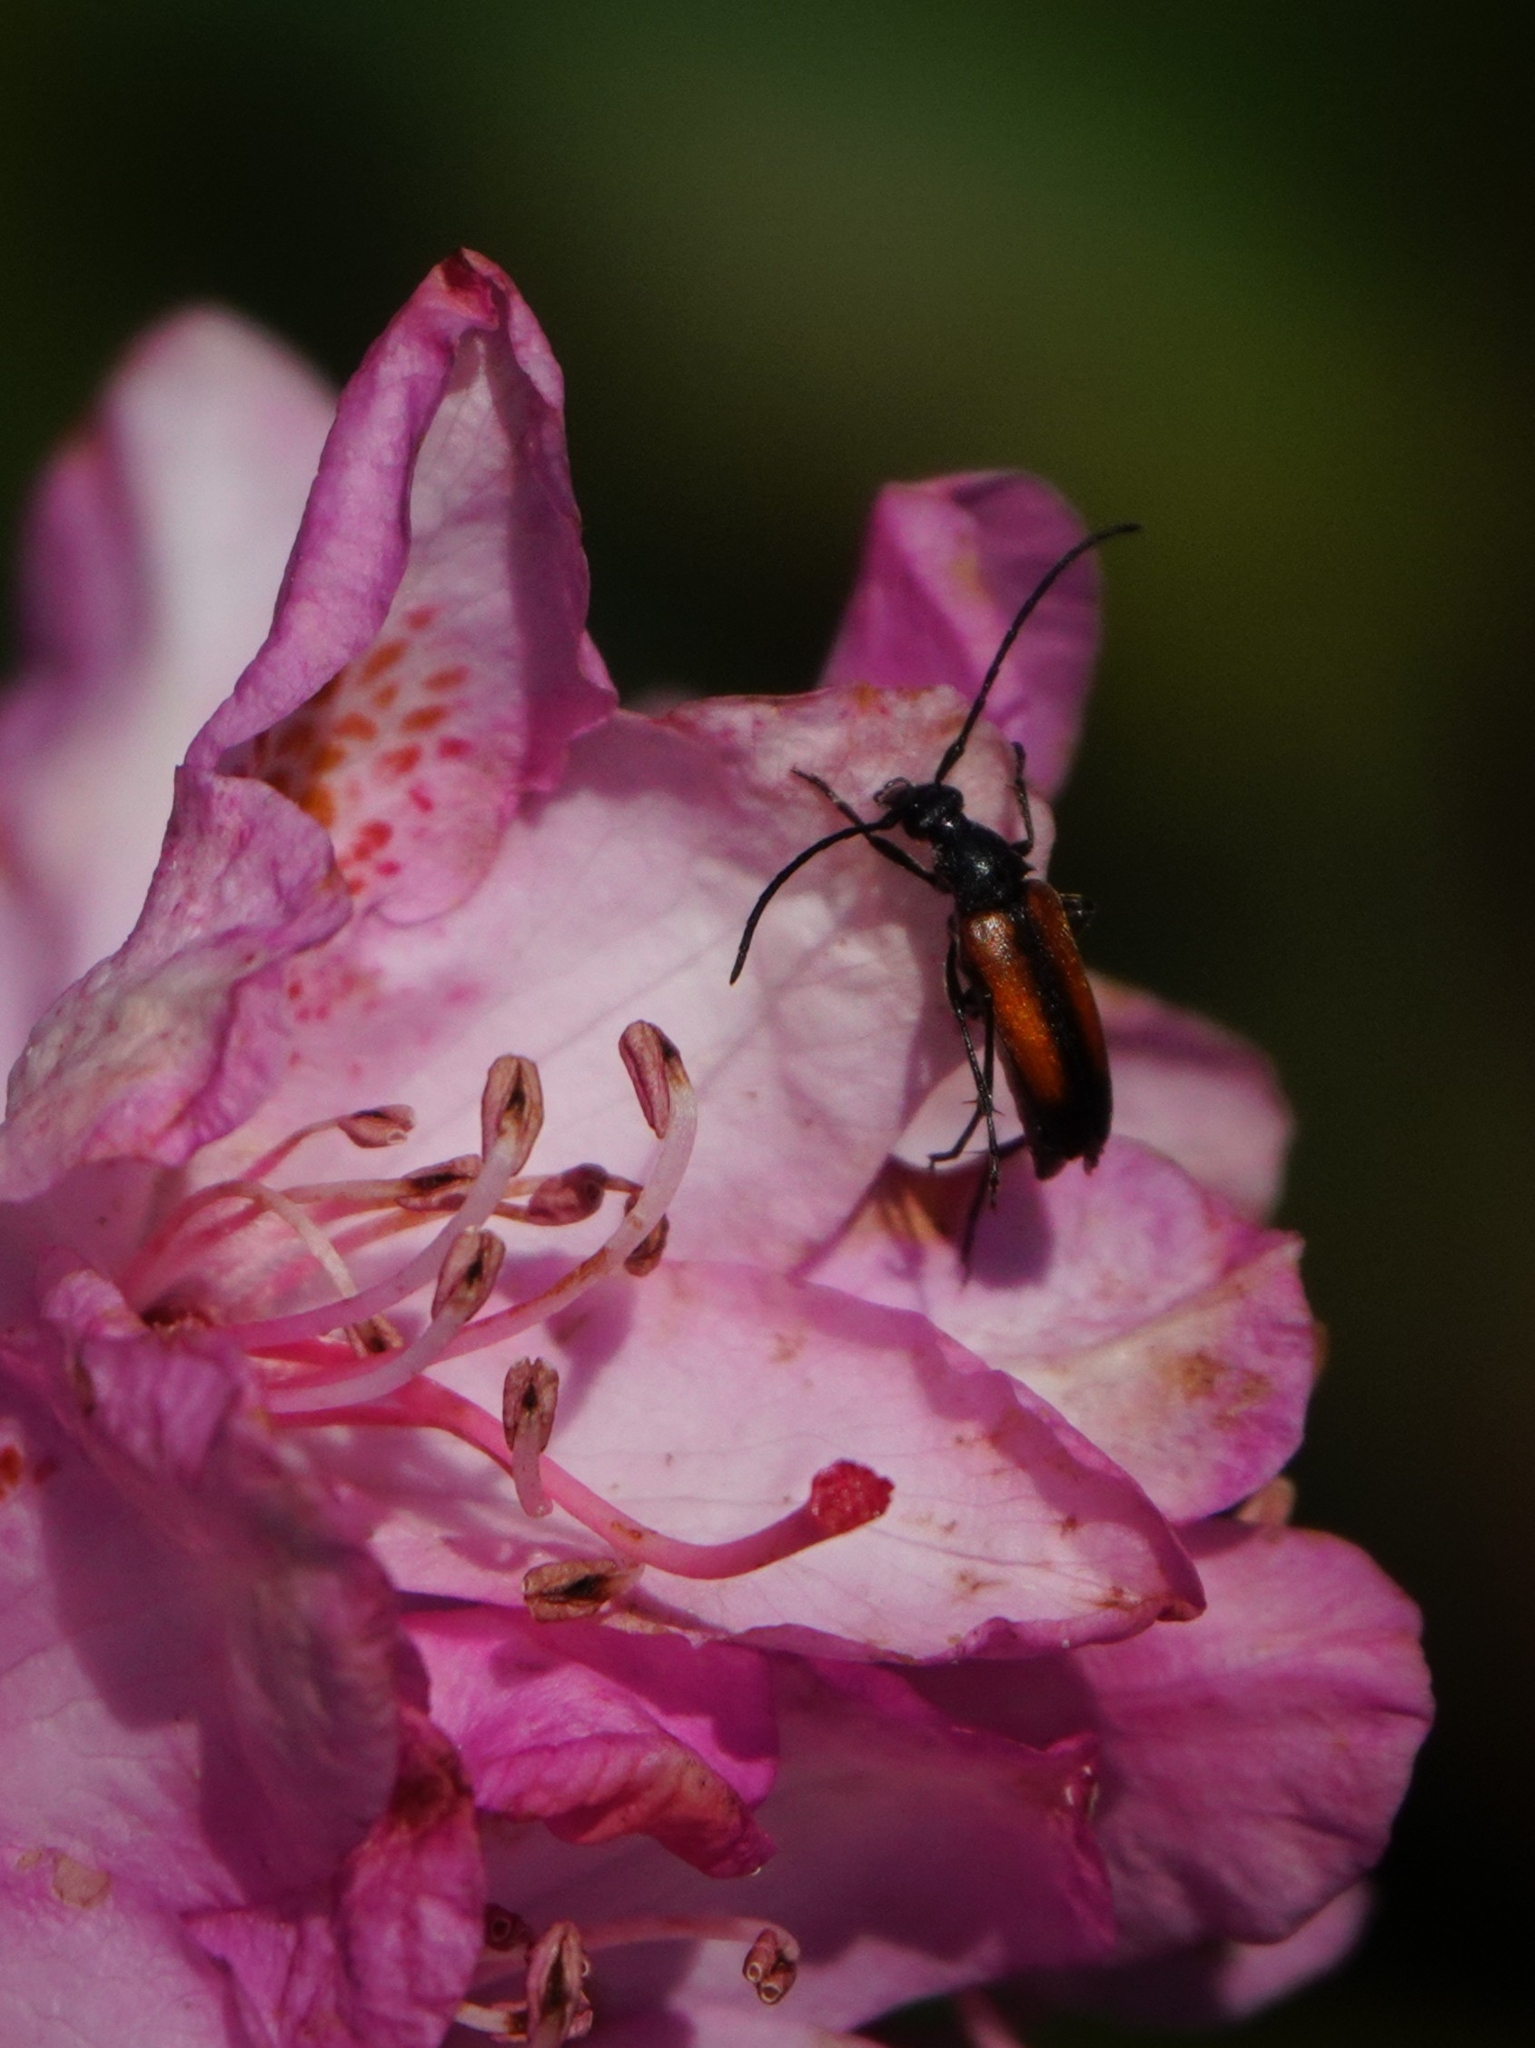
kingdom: Animalia
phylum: Arthropoda
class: Insecta
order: Coleoptera
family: Cerambycidae
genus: Stenurella
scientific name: Stenurella melanura
